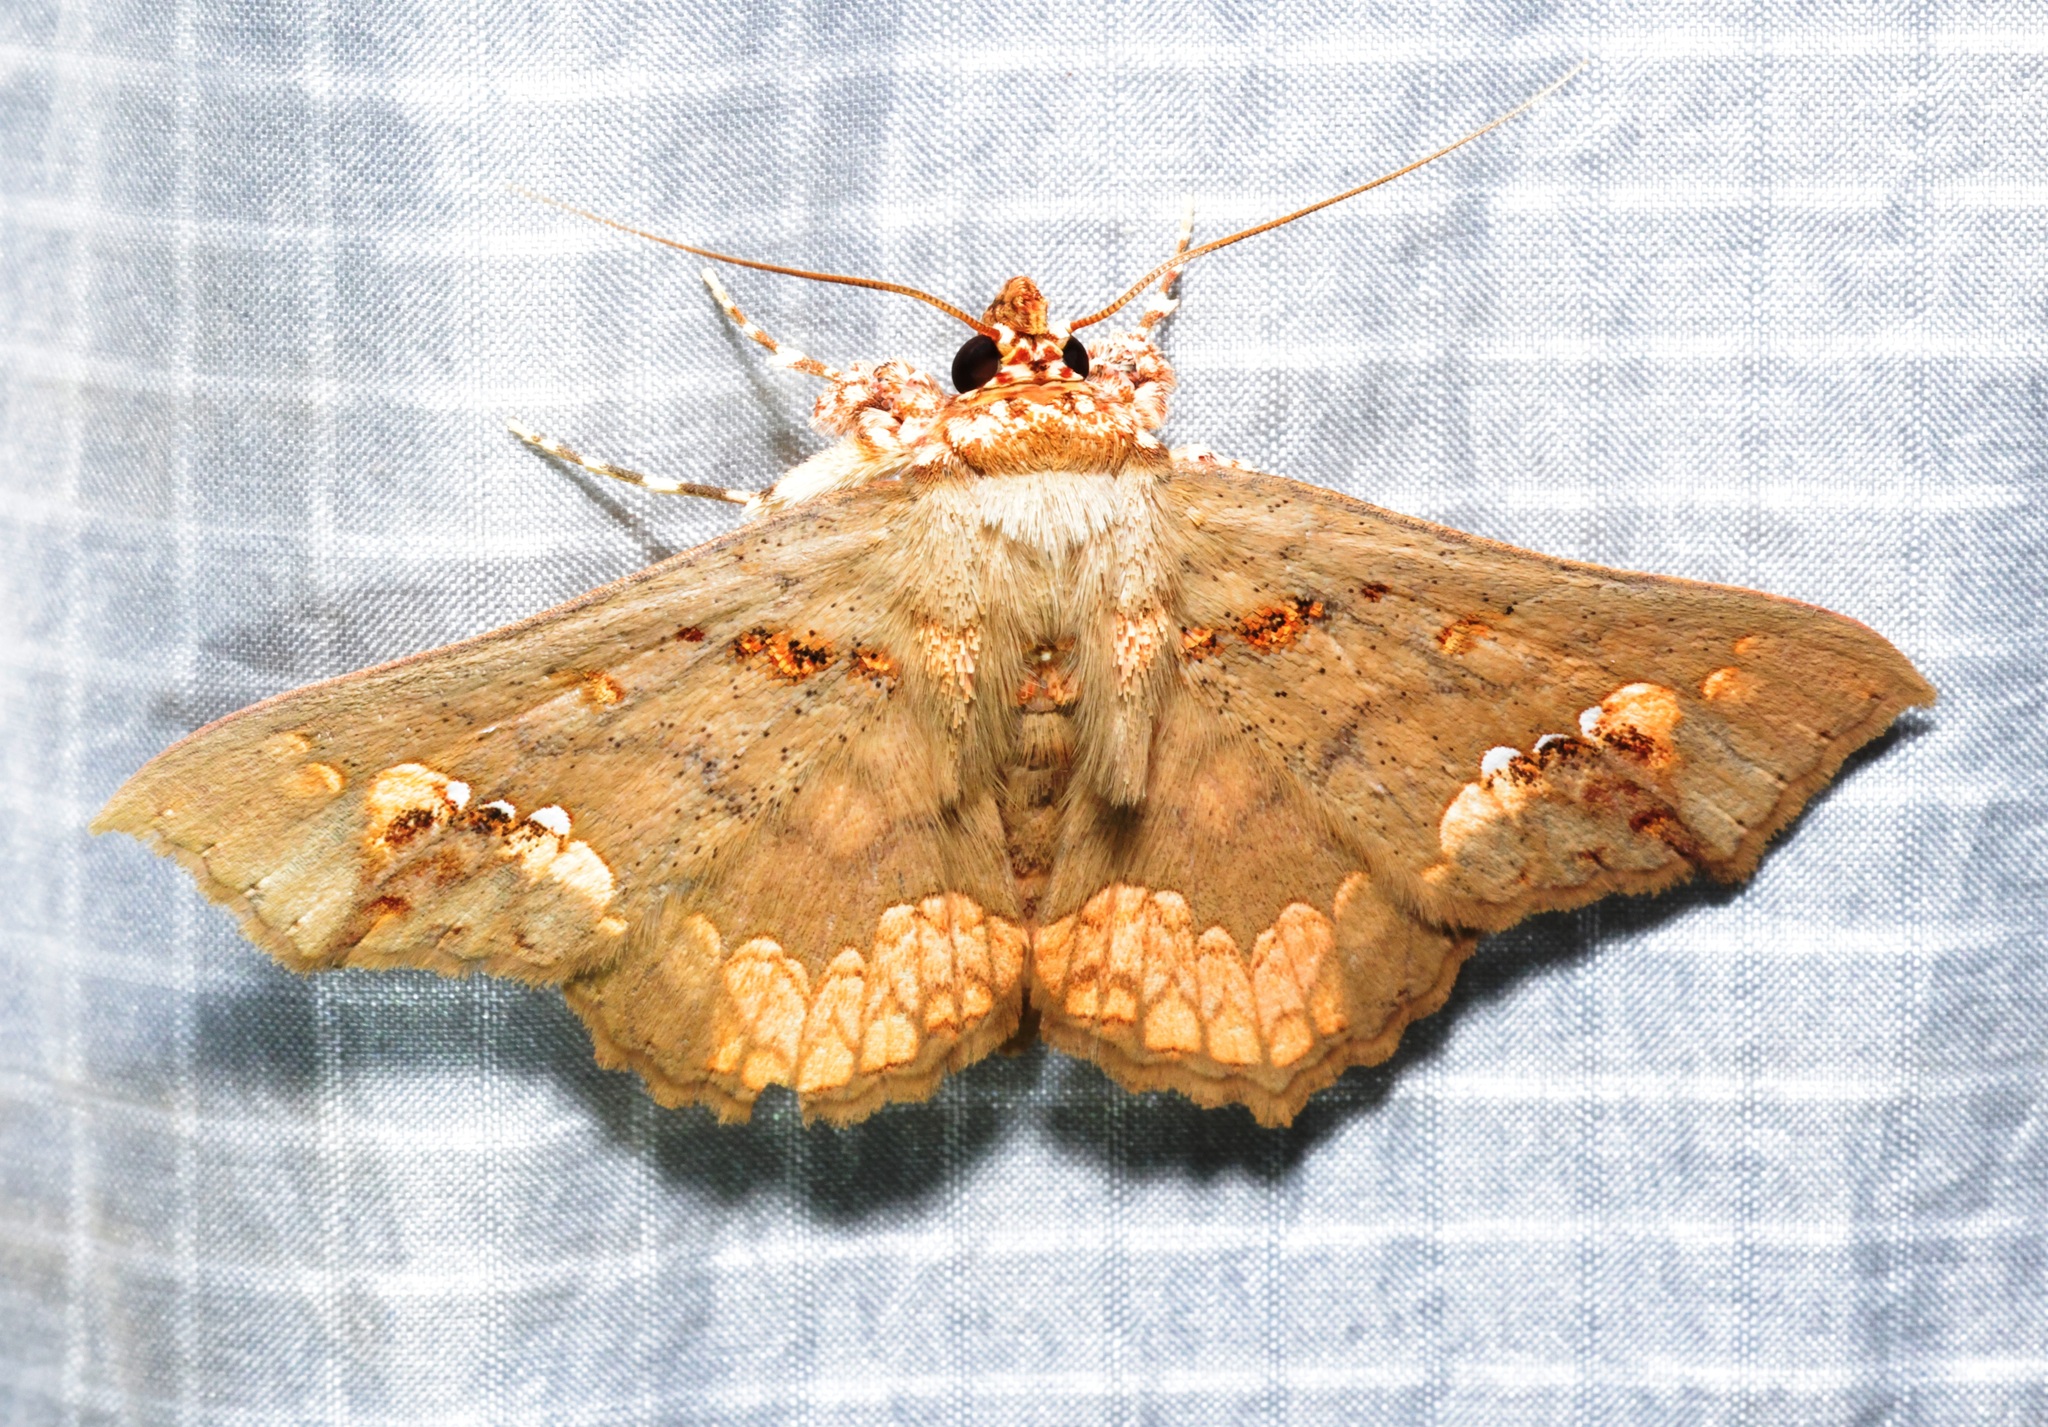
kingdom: Animalia
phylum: Arthropoda
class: Insecta
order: Lepidoptera
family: Erebidae
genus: Lopharthrum
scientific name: Lopharthrum comprimens
